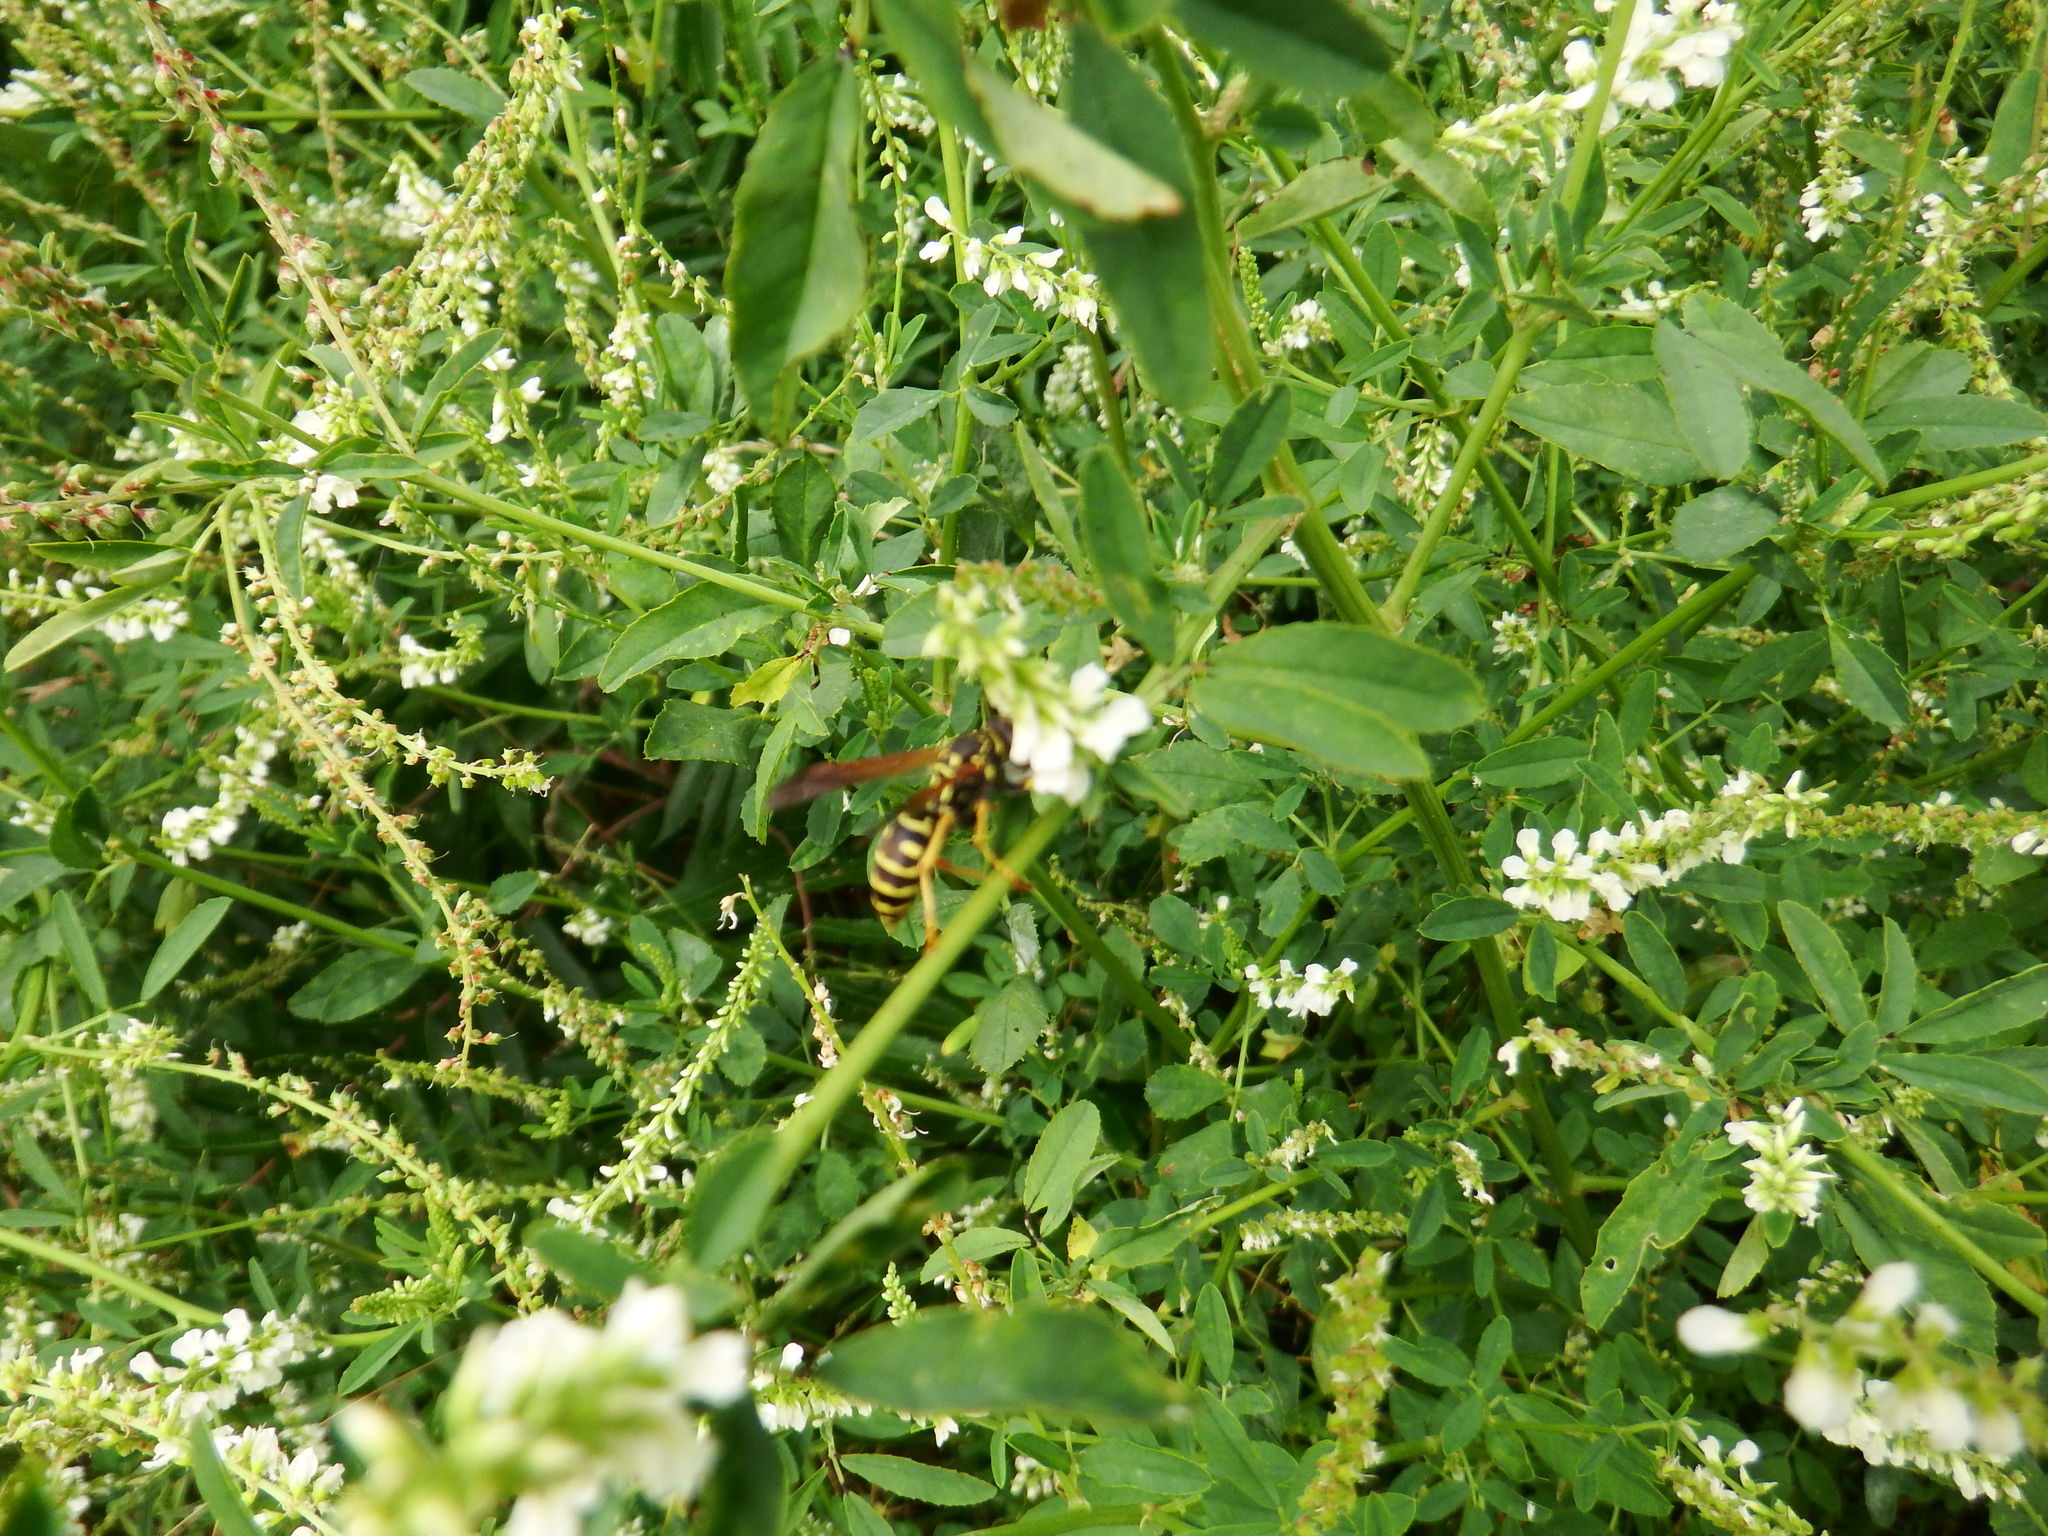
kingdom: Animalia
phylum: Arthropoda
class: Insecta
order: Hymenoptera
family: Eumenidae
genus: Polistes
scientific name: Polistes dominula
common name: Paper wasp
